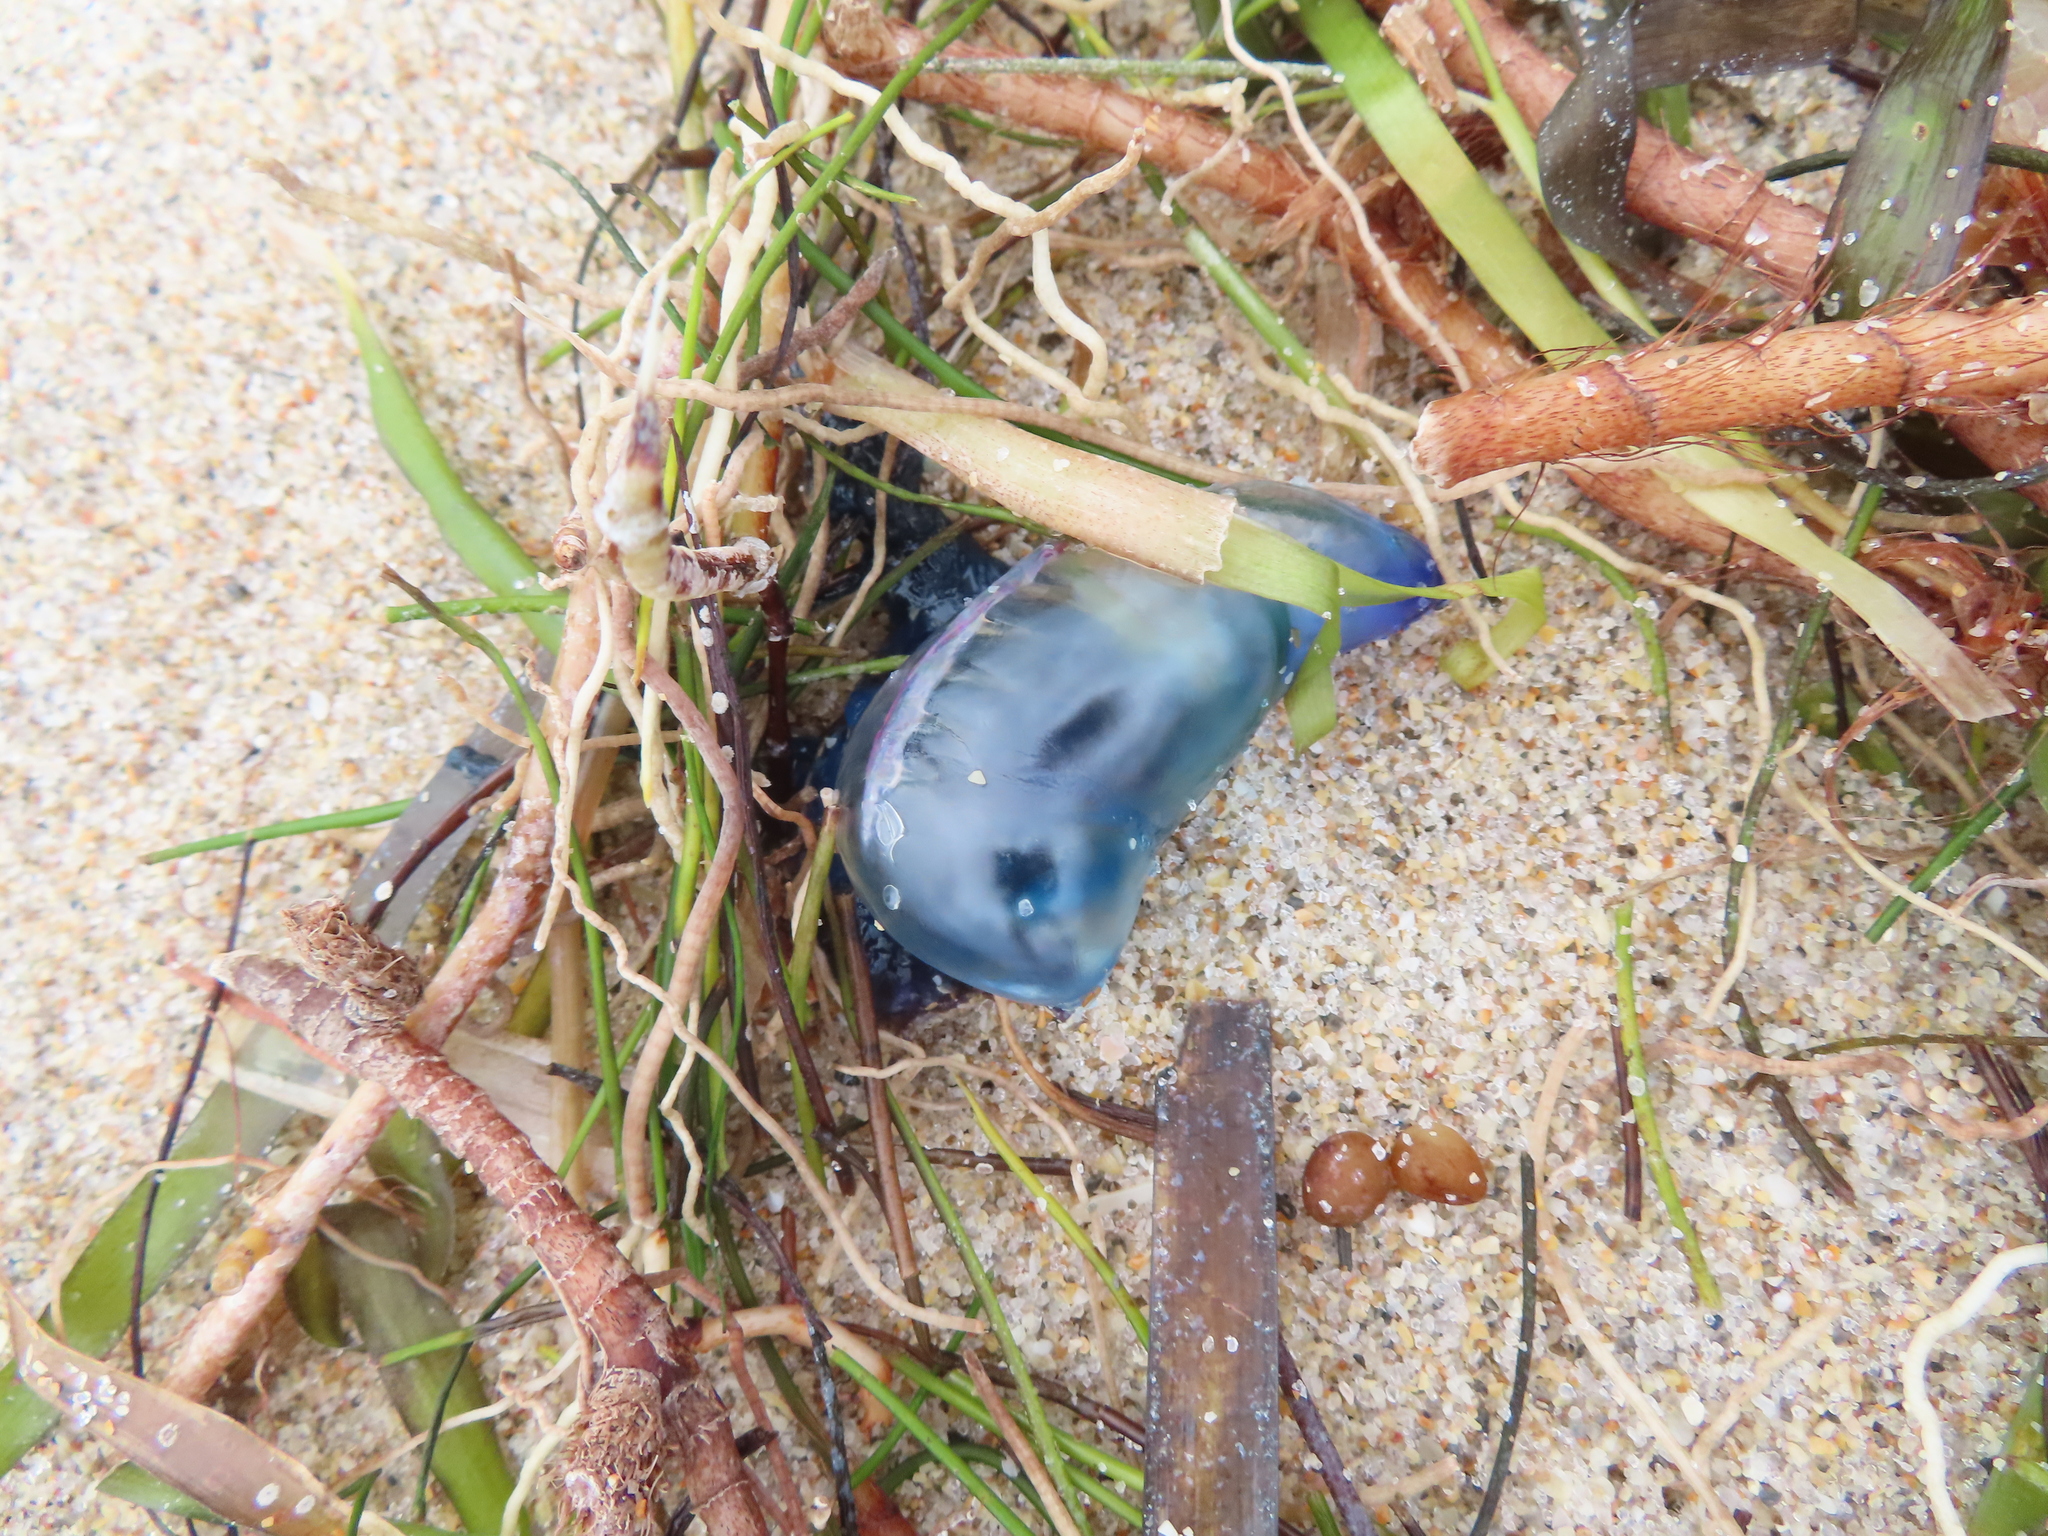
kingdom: Animalia
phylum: Cnidaria
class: Hydrozoa
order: Siphonophorae
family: Physaliidae
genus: Physalia
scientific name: Physalia physalis
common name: Portuguese man-of-war
